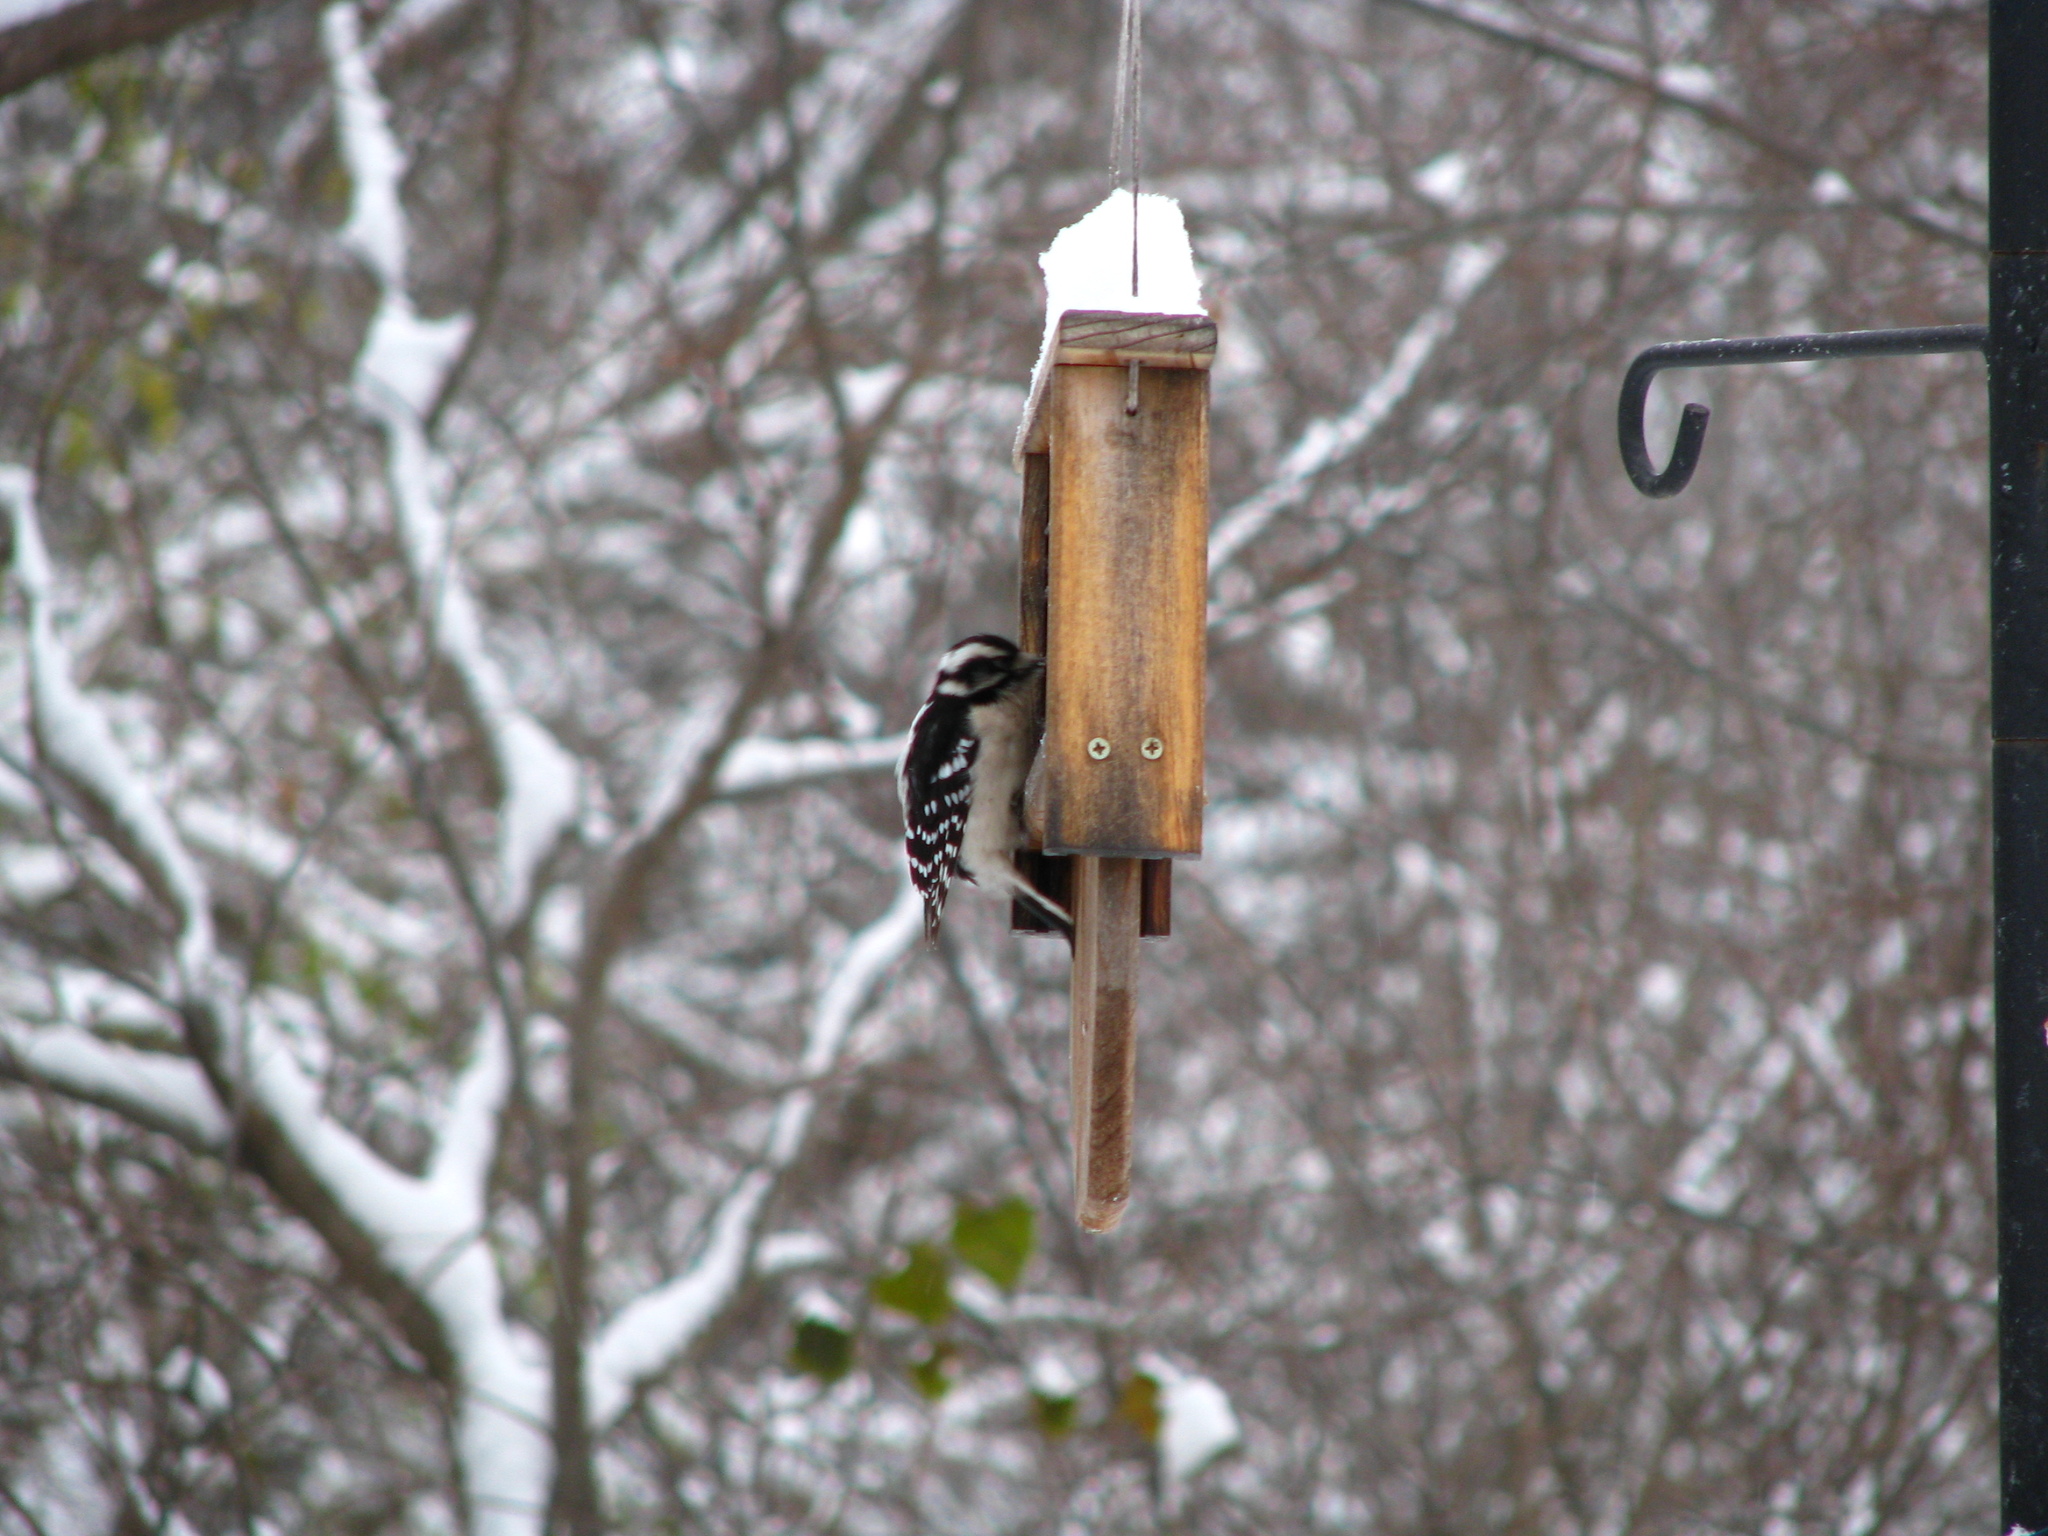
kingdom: Animalia
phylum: Chordata
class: Aves
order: Piciformes
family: Picidae
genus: Dryobates
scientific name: Dryobates pubescens
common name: Downy woodpecker
